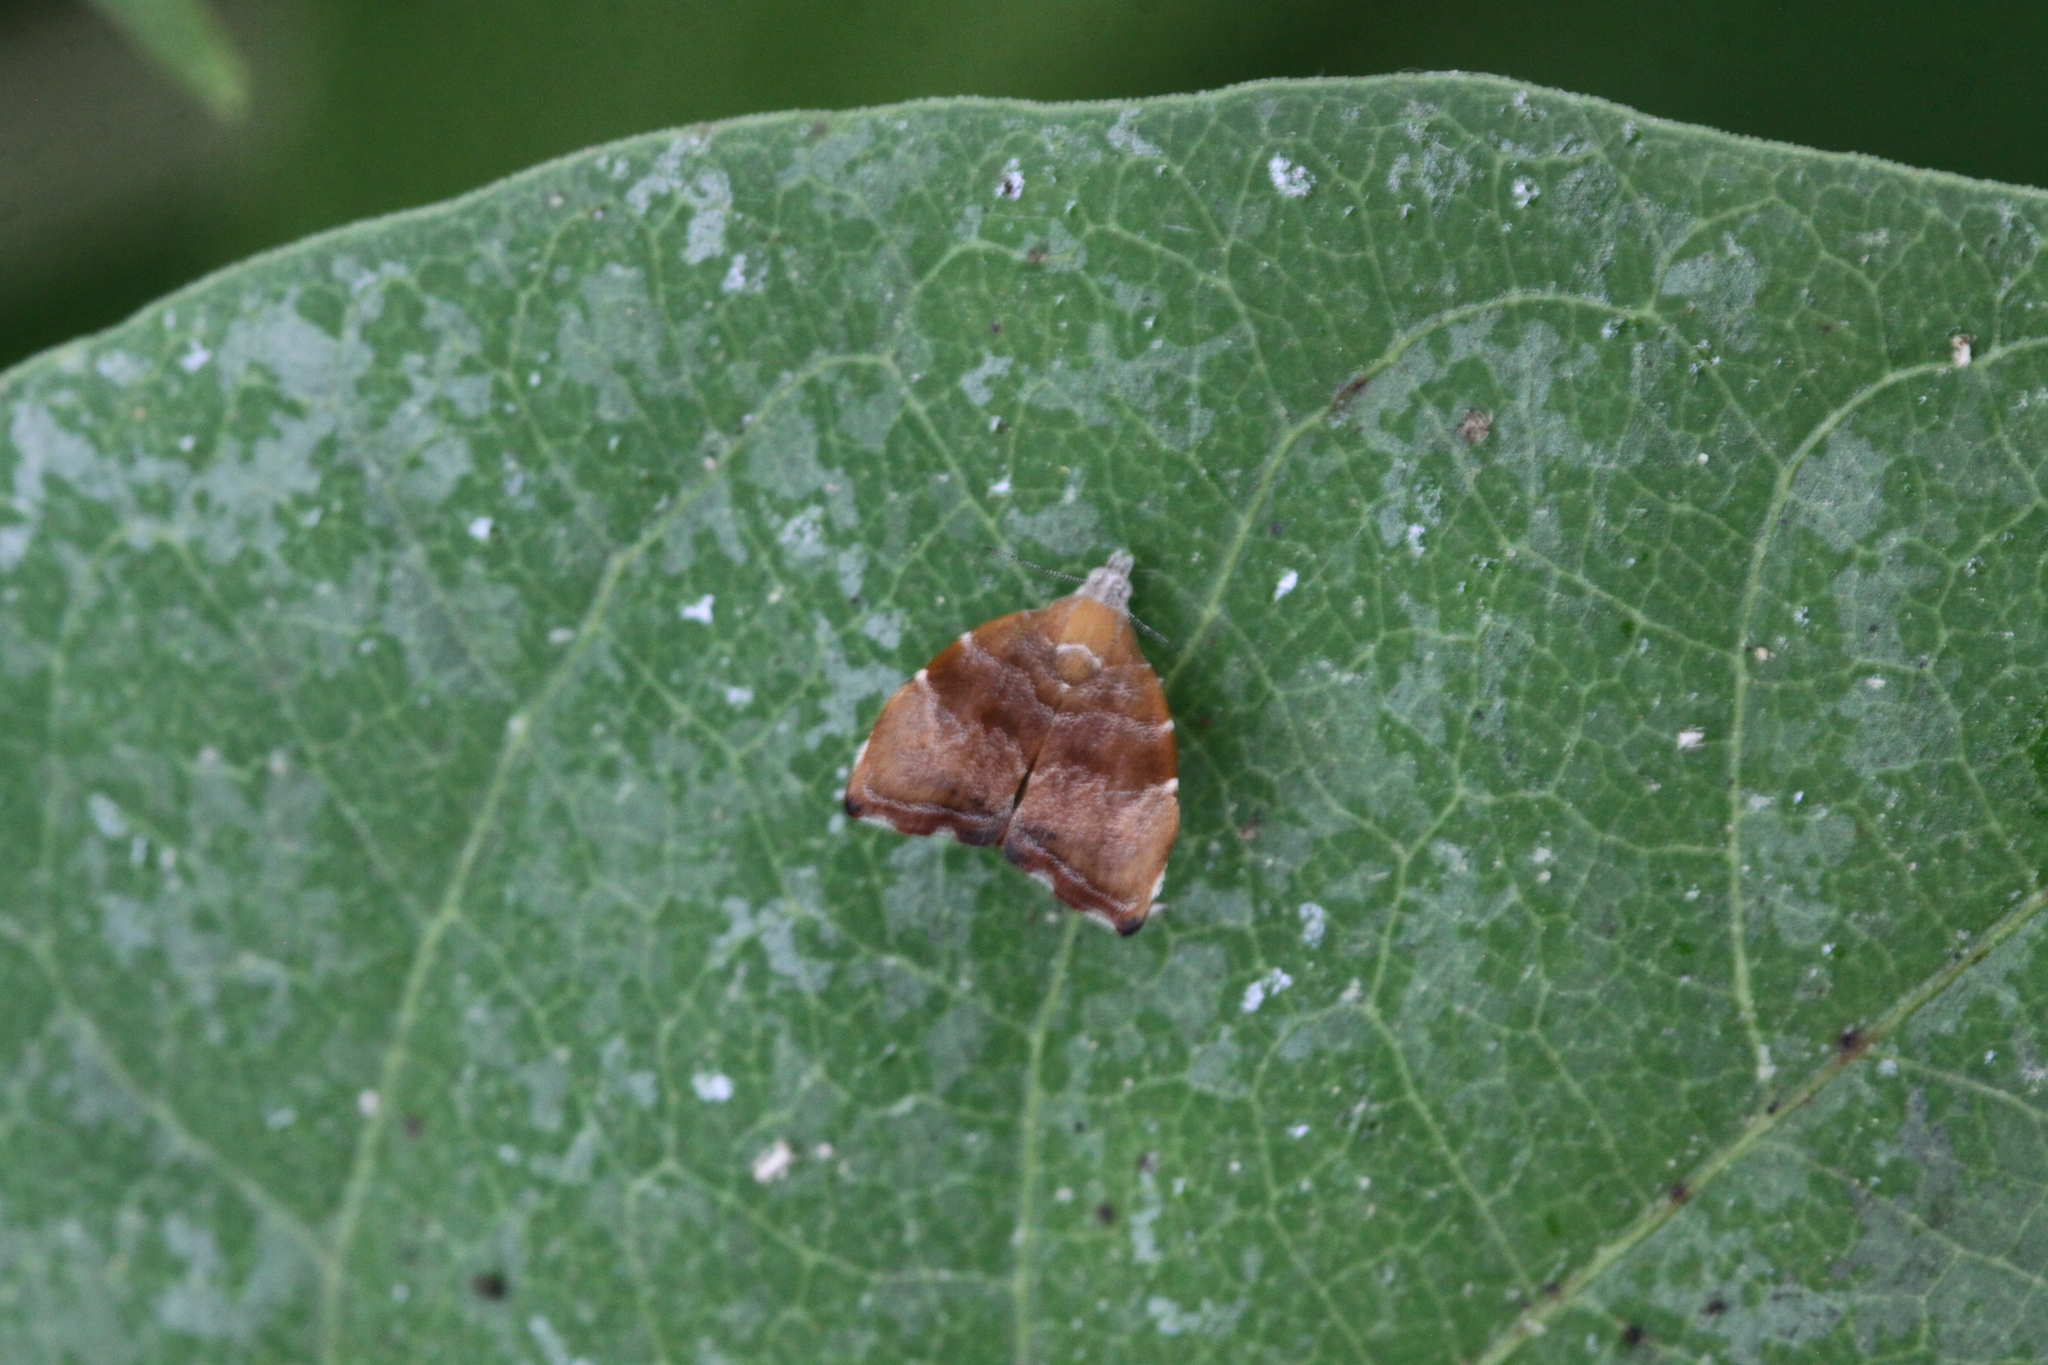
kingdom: Animalia
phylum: Arthropoda
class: Insecta
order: Lepidoptera
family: Choreutidae
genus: Anthophila
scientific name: Anthophila nemorana
